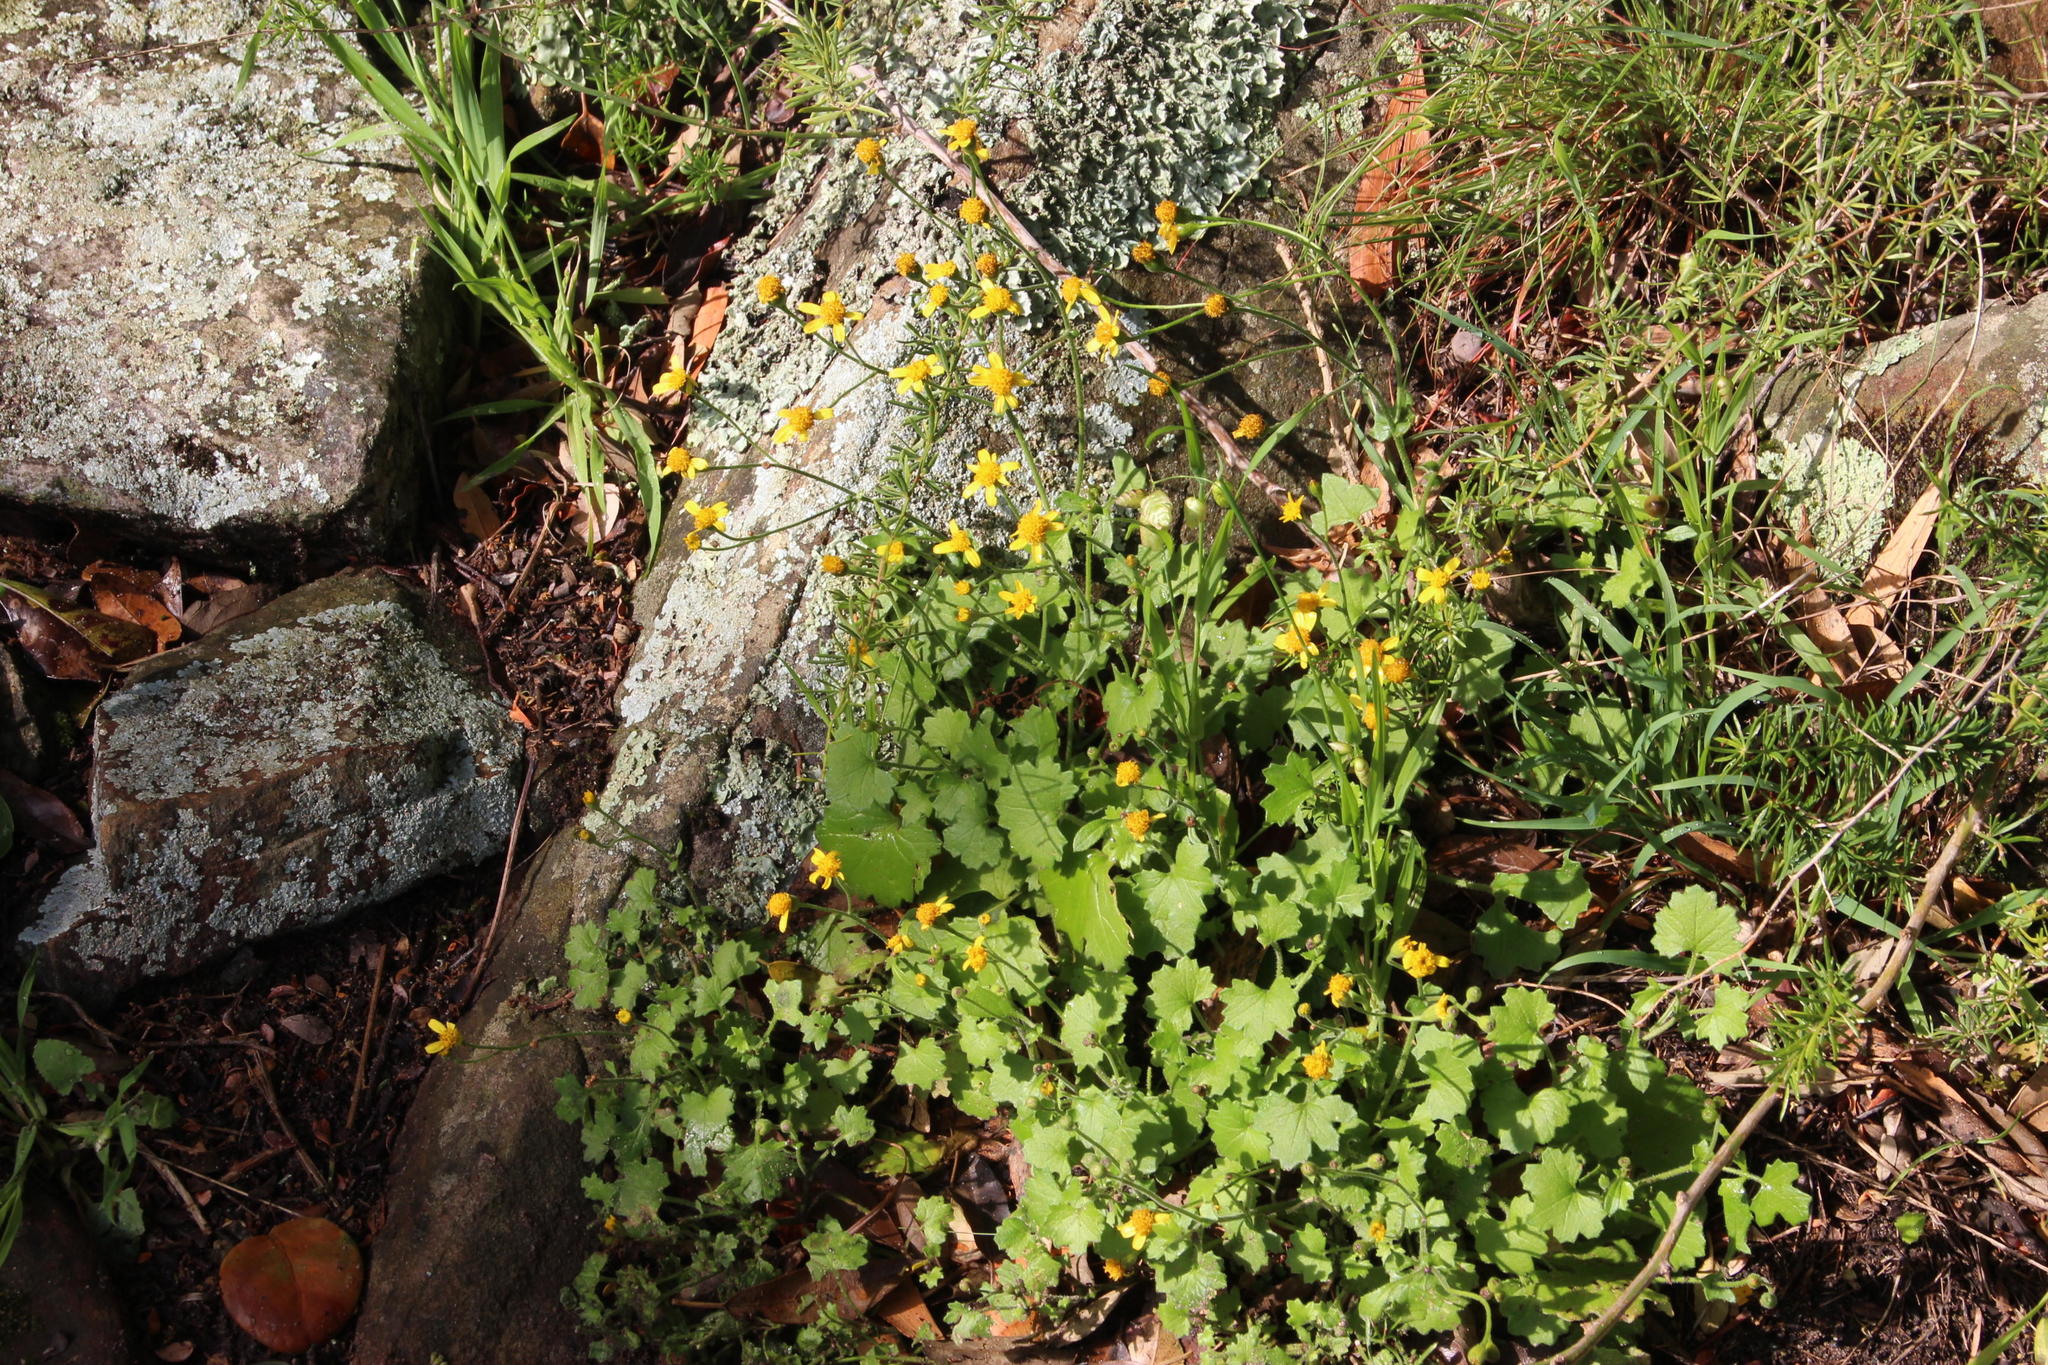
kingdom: Plantae
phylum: Tracheophyta
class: Magnoliopsida
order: Asterales
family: Asteraceae
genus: Cineraria
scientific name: Cineraria geifolia
